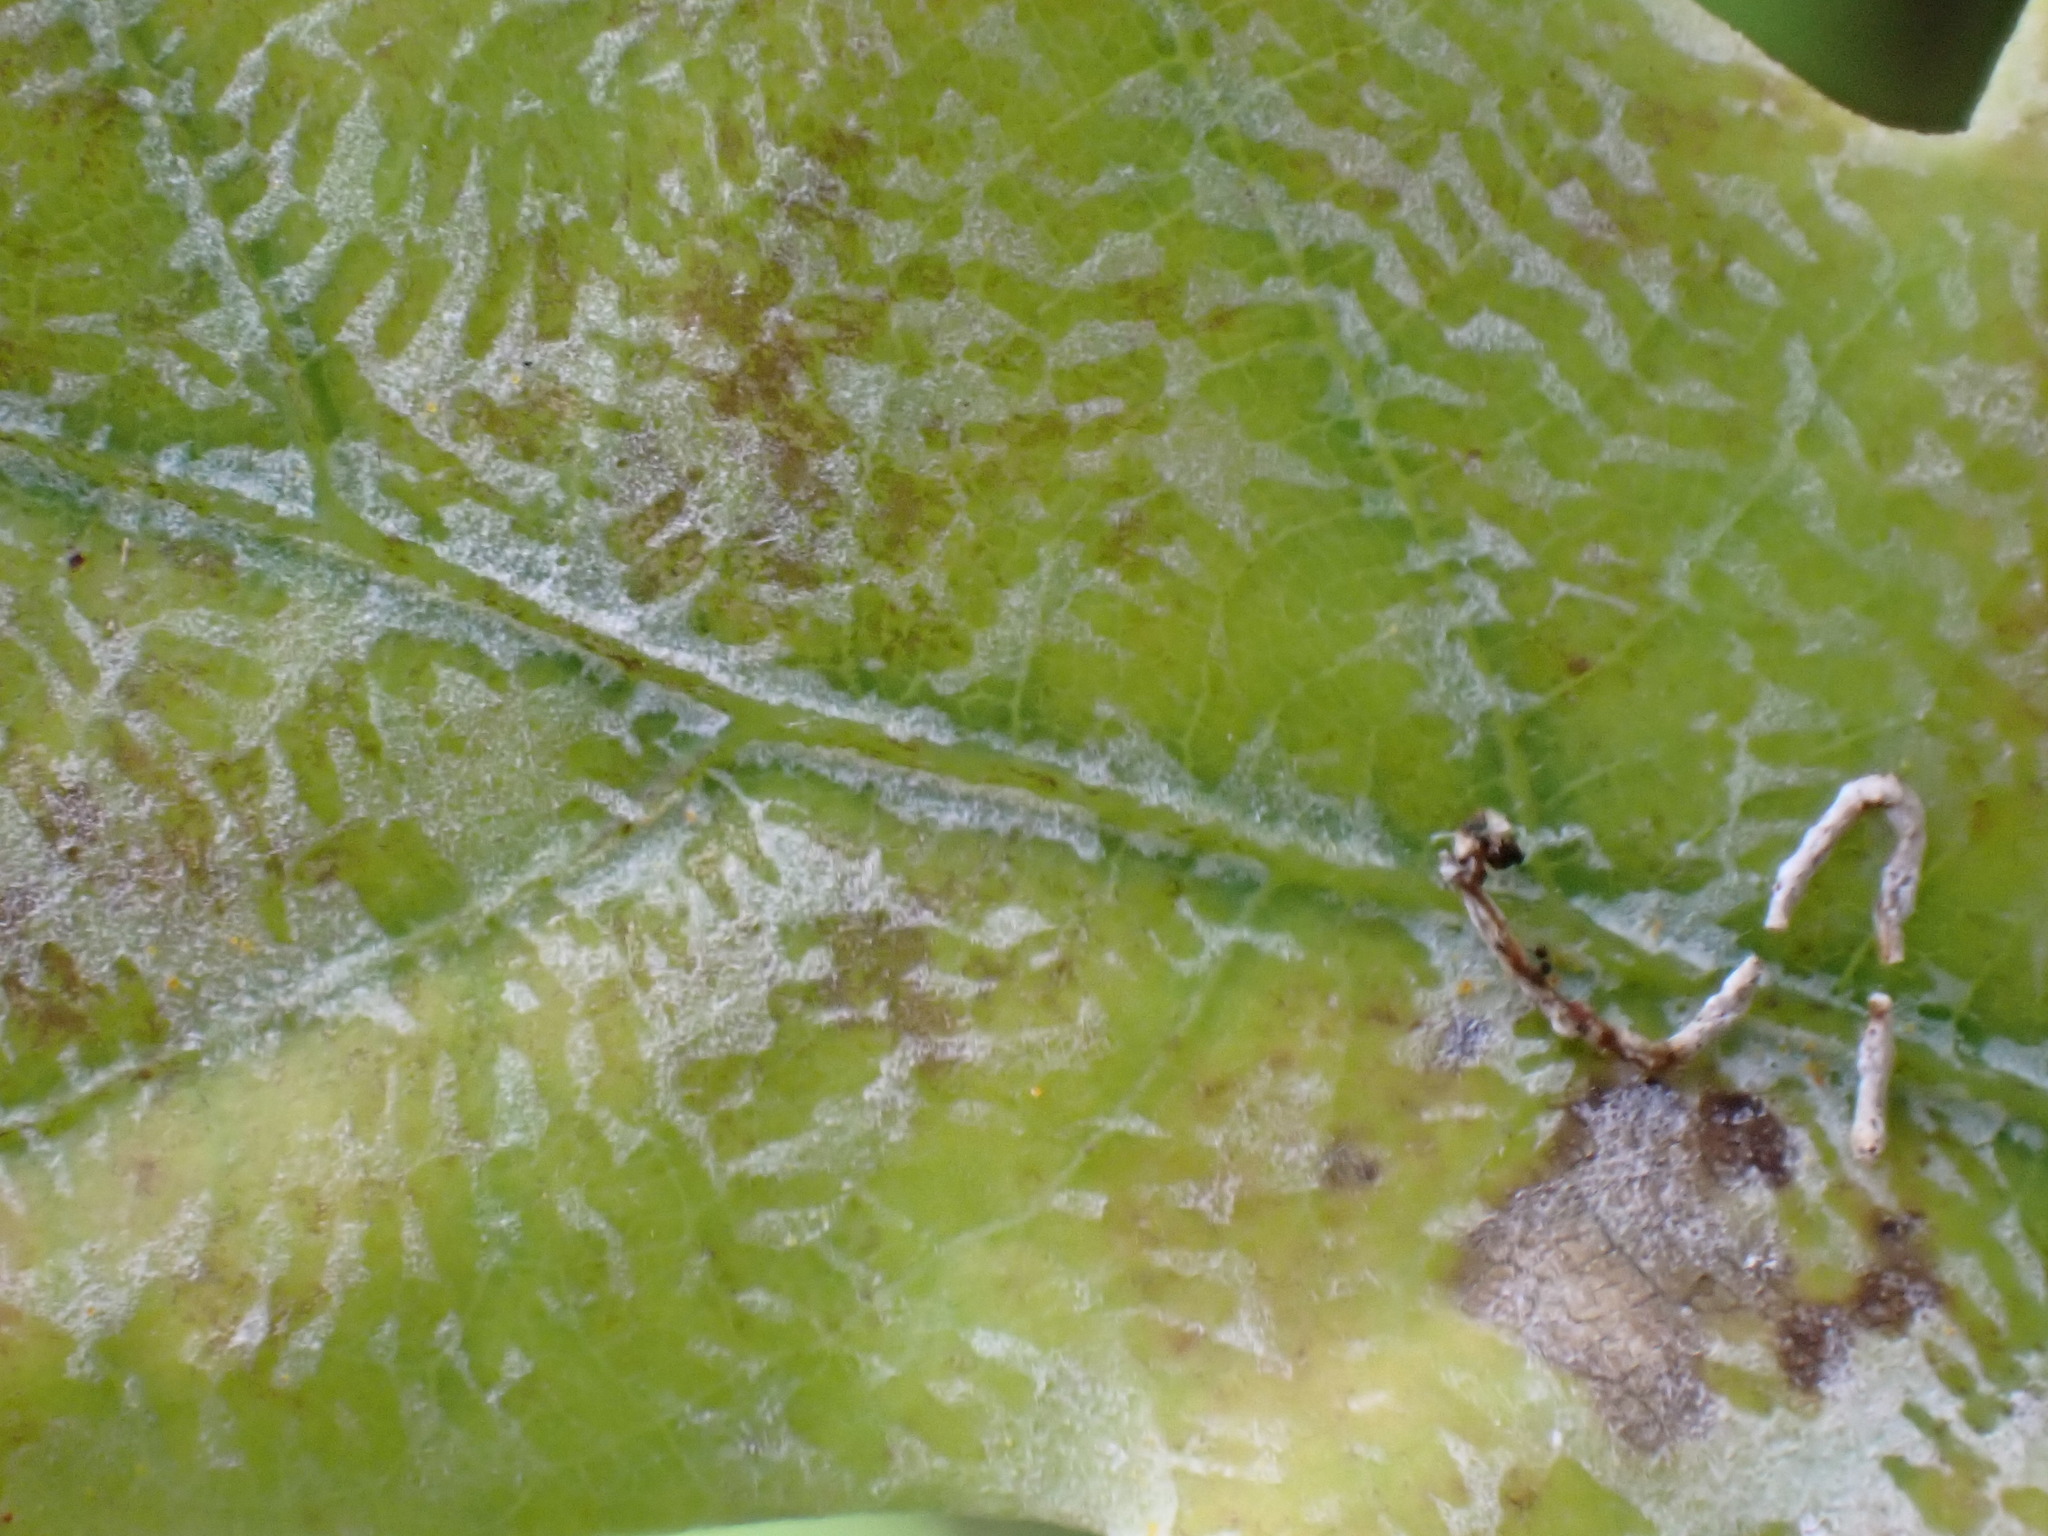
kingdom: Fungi
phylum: Ascomycota
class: Leotiomycetes
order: Helotiales
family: Erysiphaceae
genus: Erysiphe
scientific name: Erysiphe
